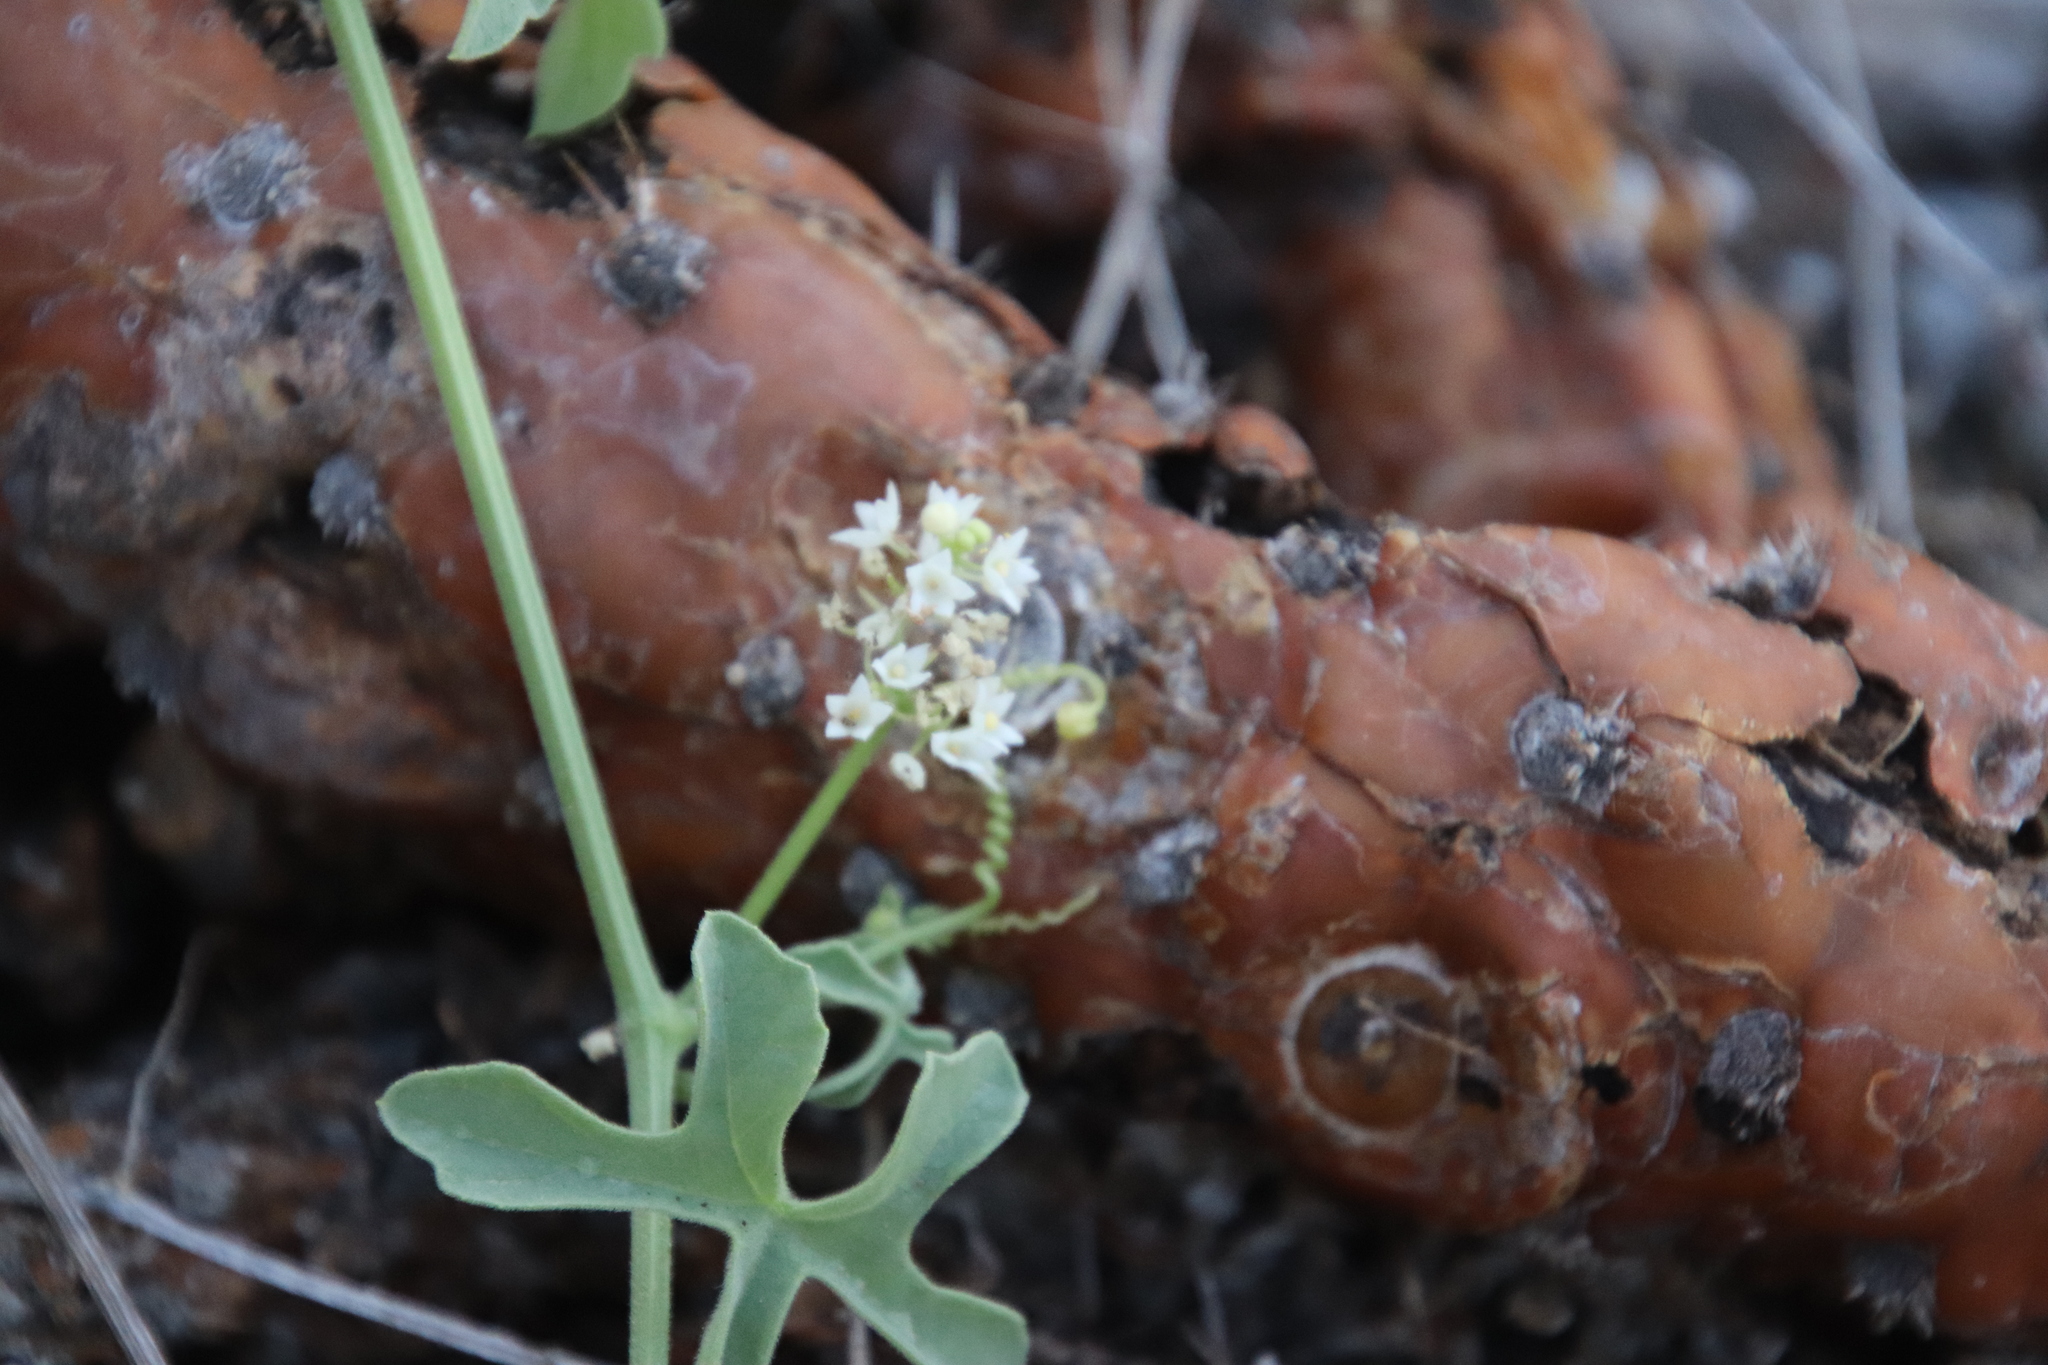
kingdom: Plantae
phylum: Tracheophyta
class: Magnoliopsida
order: Cucurbitales
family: Cucurbitaceae
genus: Echinopepon
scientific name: Echinopepon insularis
